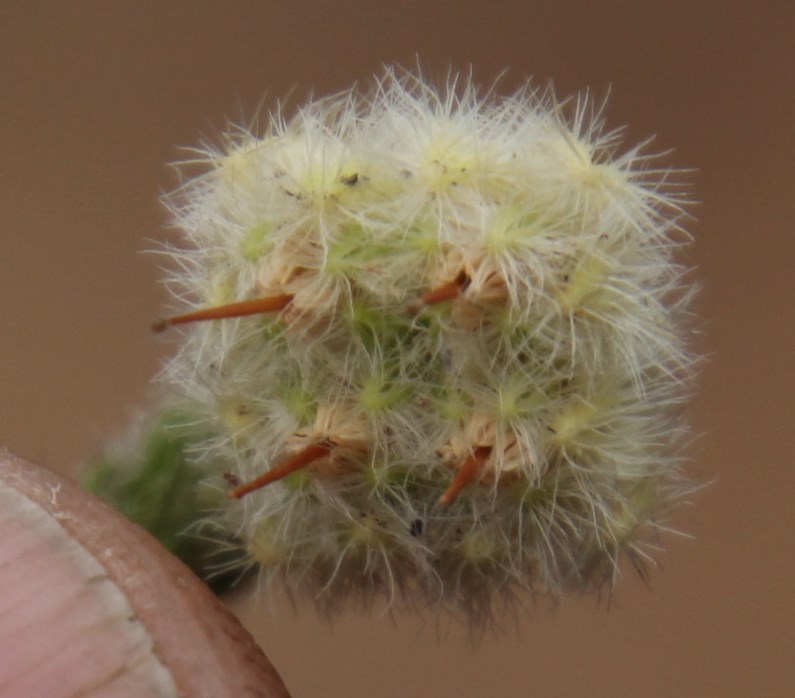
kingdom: Plantae
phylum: Tracheophyta
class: Magnoliopsida
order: Ericales
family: Ericaceae
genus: Erica
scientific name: Erica senilis
